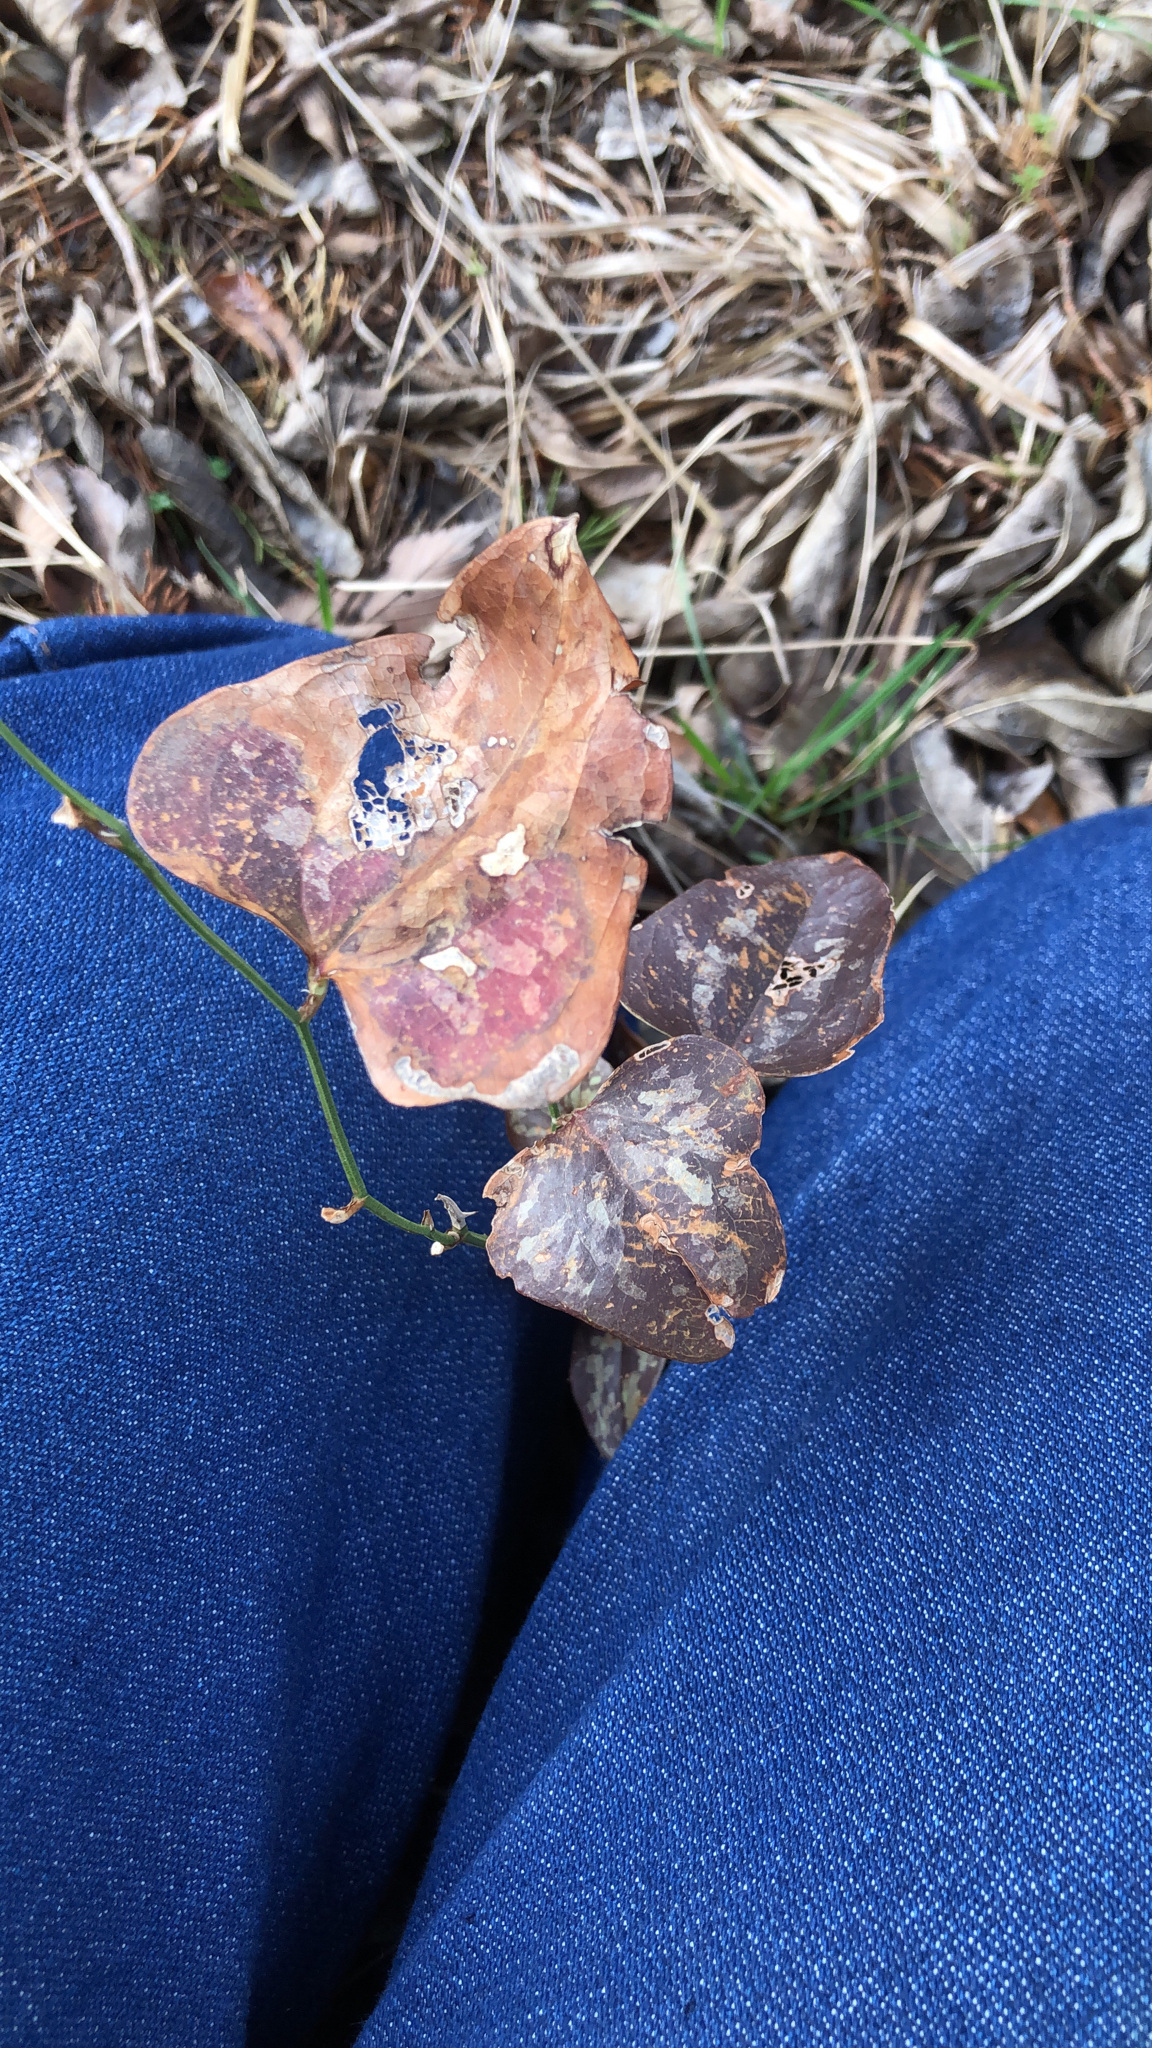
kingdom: Plantae
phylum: Tracheophyta
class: Liliopsida
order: Liliales
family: Smilacaceae
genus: Smilax
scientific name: Smilax bona-nox
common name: Catbrier
